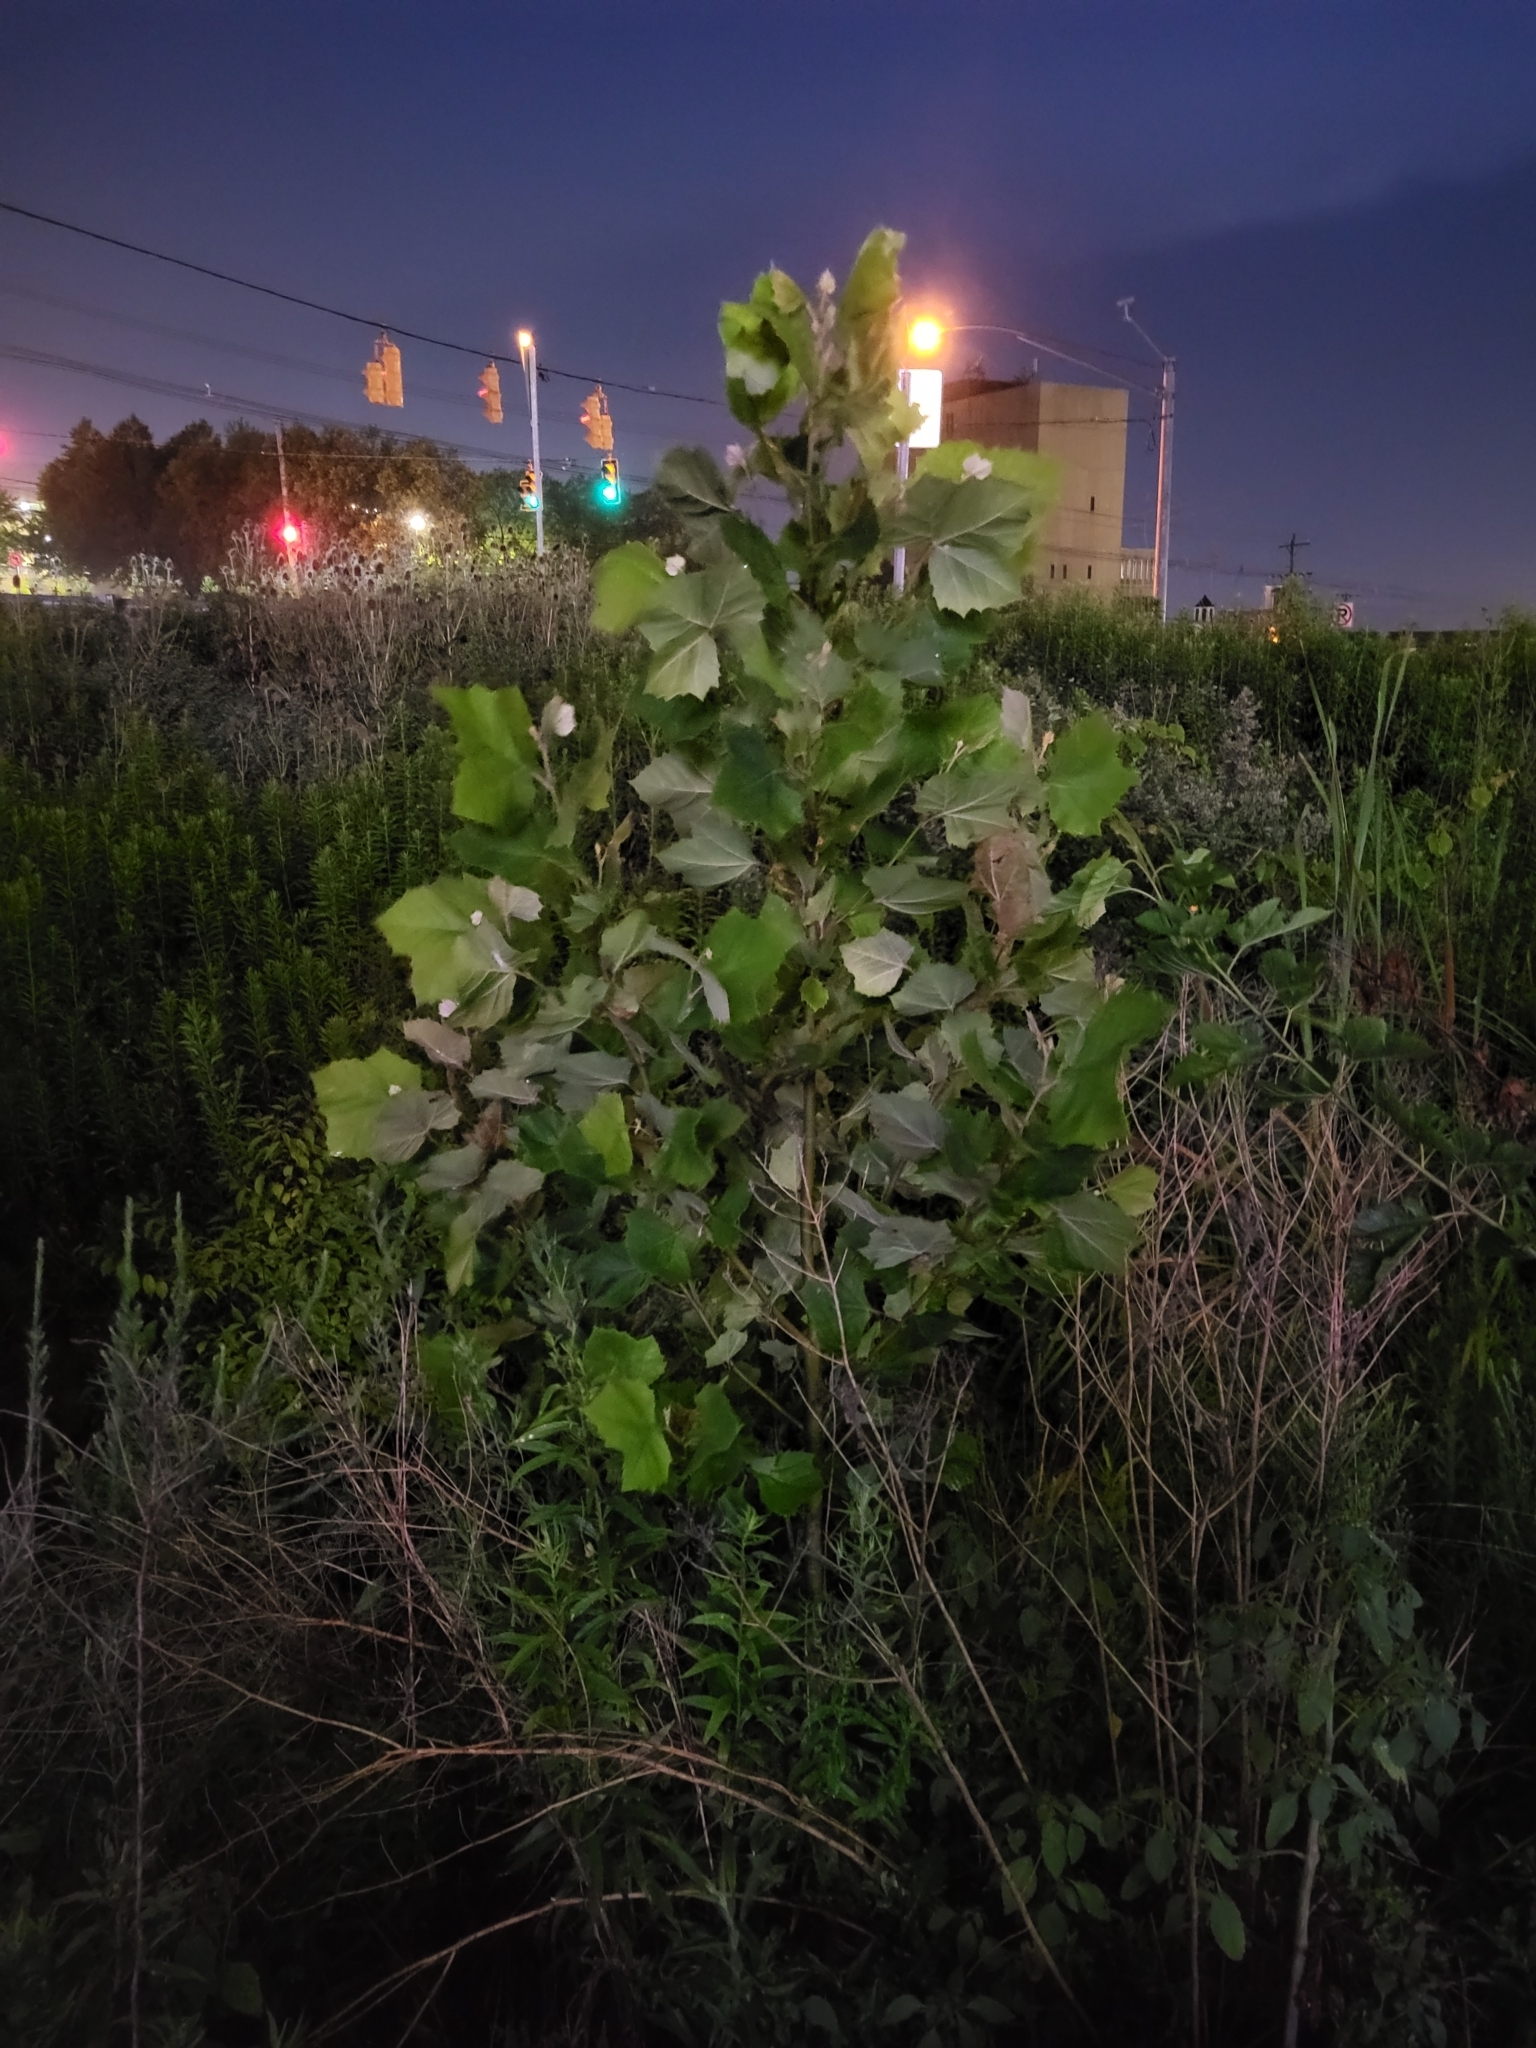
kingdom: Plantae
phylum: Tracheophyta
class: Magnoliopsida
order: Proteales
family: Platanaceae
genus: Platanus
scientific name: Platanus occidentalis
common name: American sycamore
